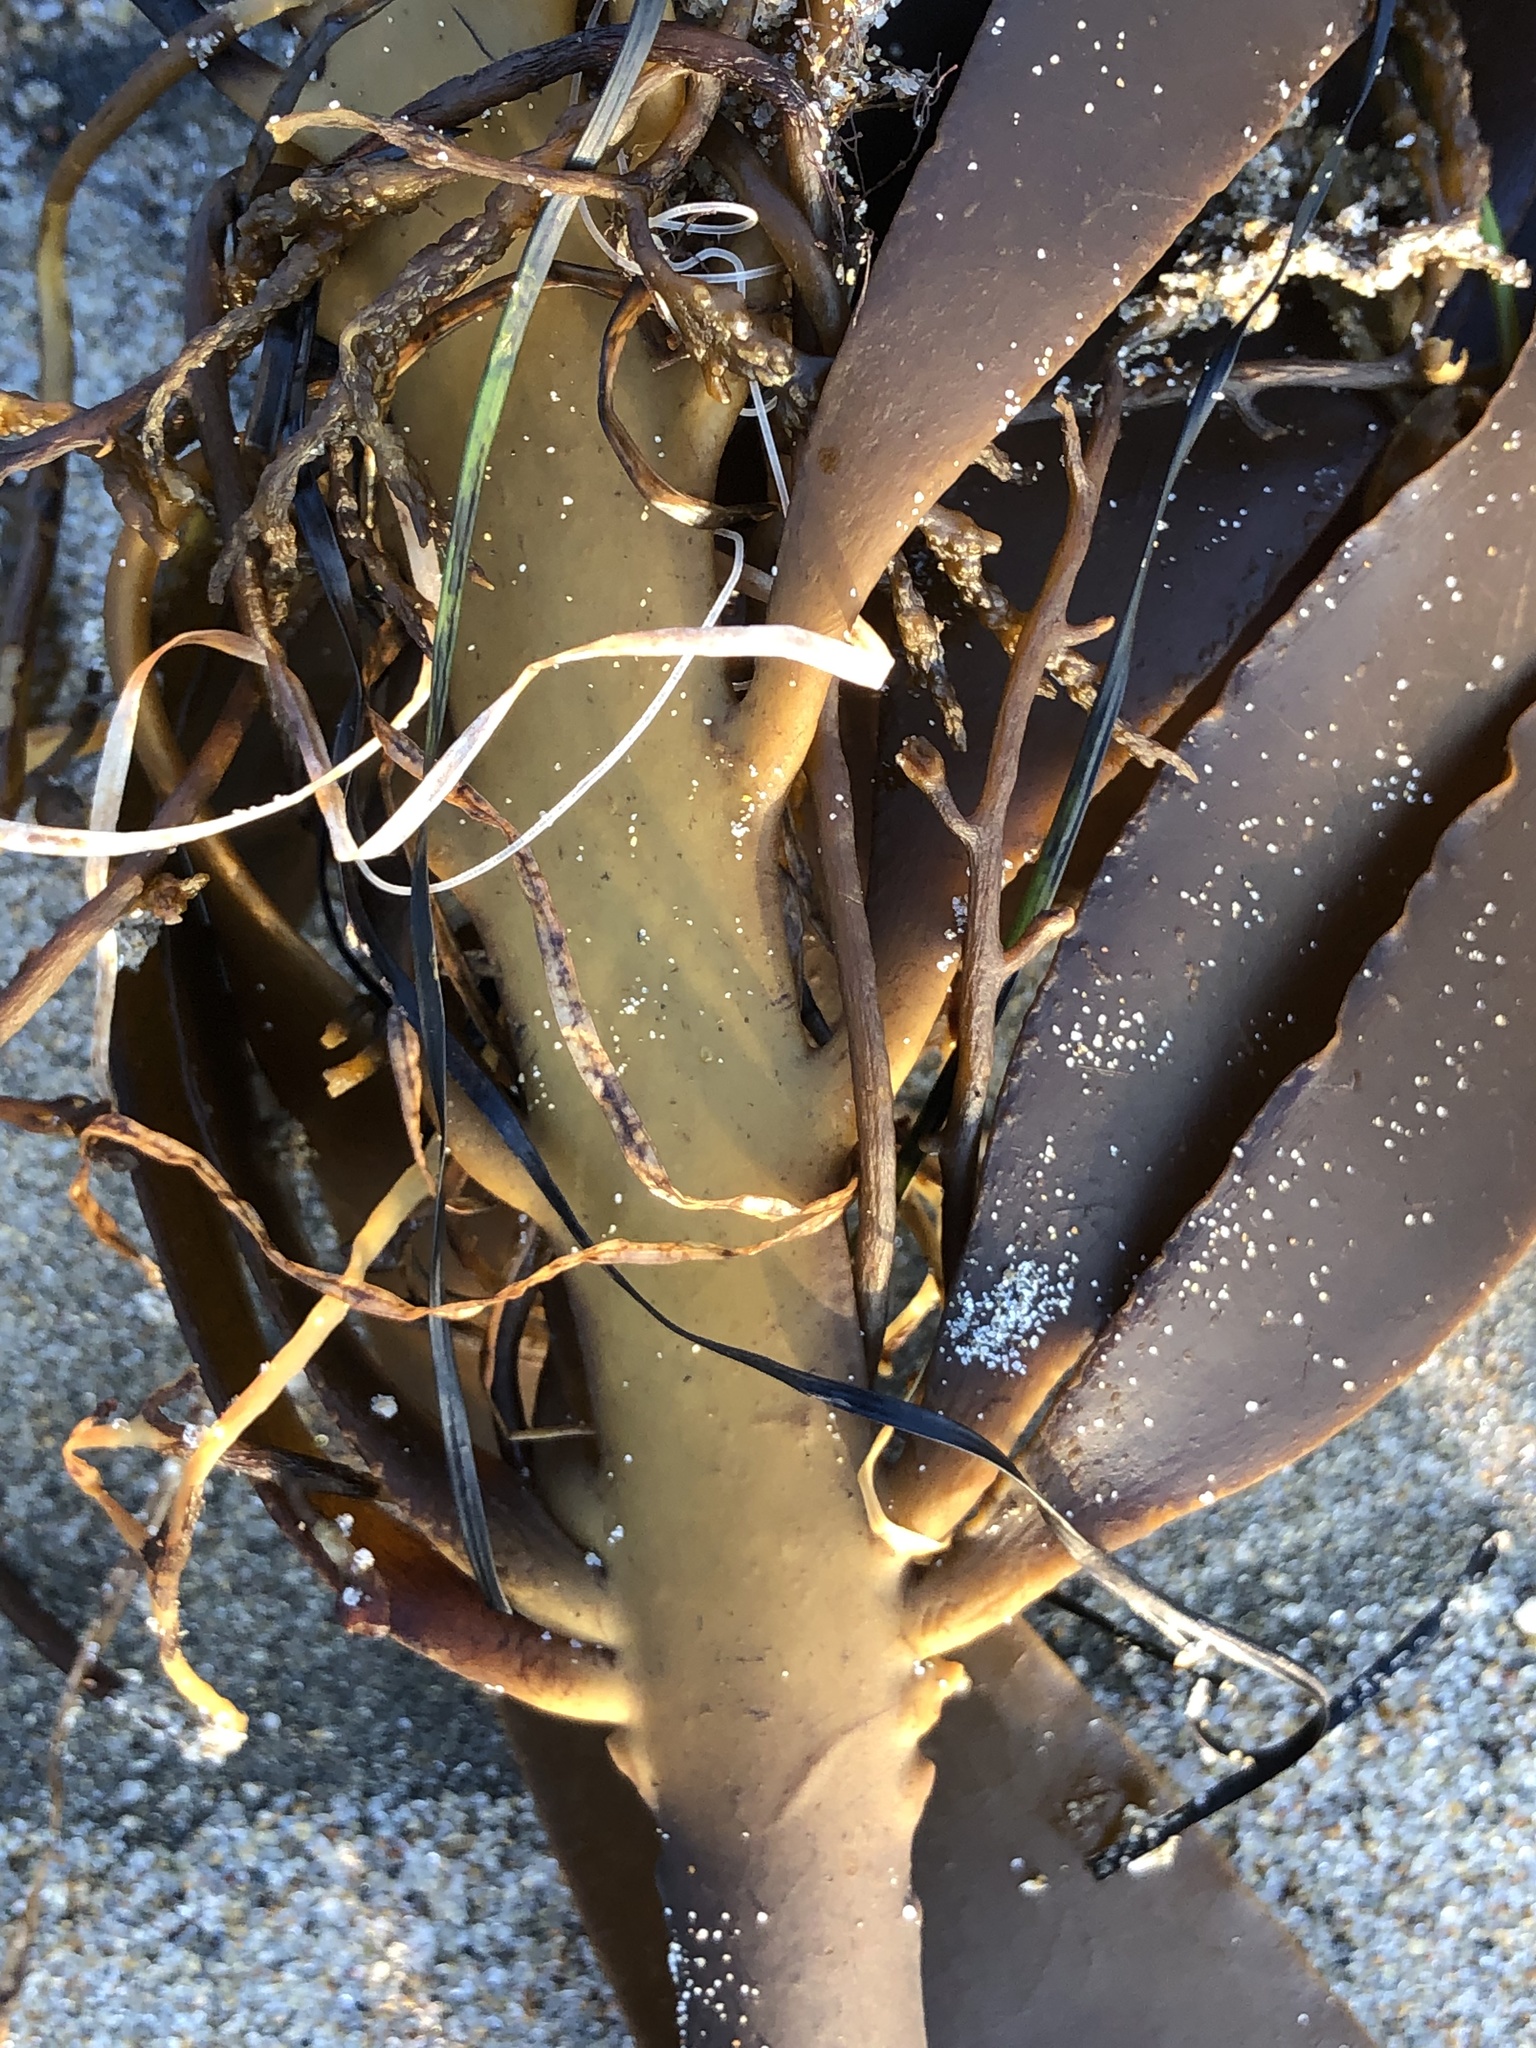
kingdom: Chromista
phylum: Ochrophyta
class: Phaeophyceae
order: Laminariales
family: Alariaceae
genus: Pterygophora
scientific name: Pterygophora californica
